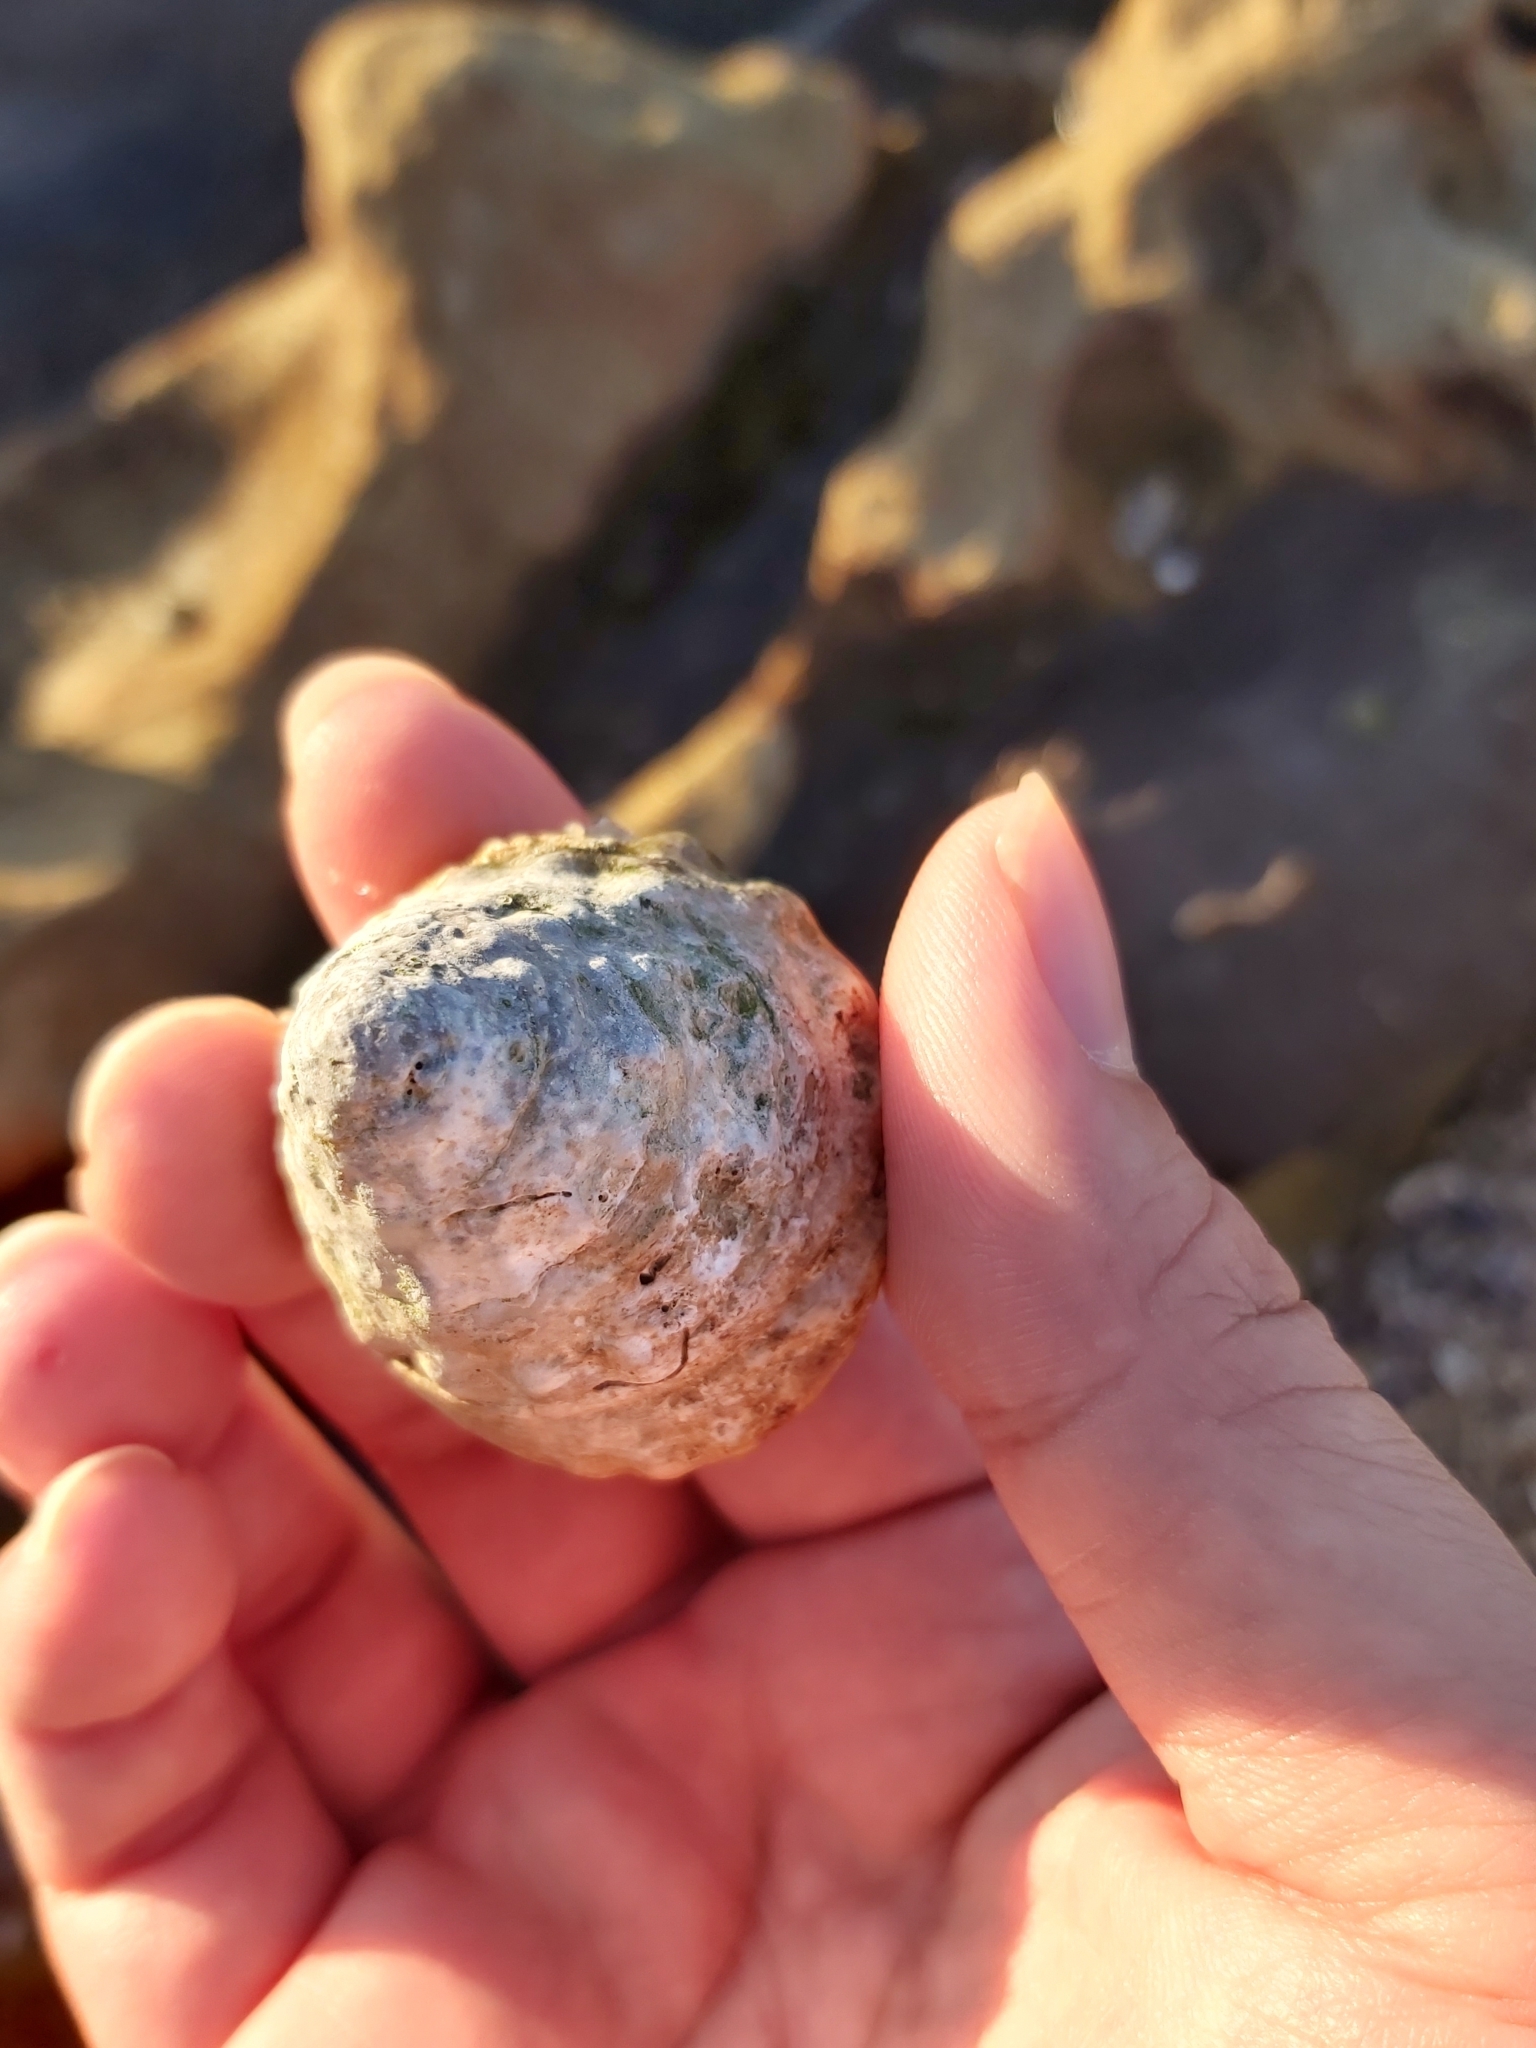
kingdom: Animalia
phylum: Mollusca
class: Gastropoda
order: Trochida
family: Turbinidae
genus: Astralium
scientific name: Astralium tentoriiforme
